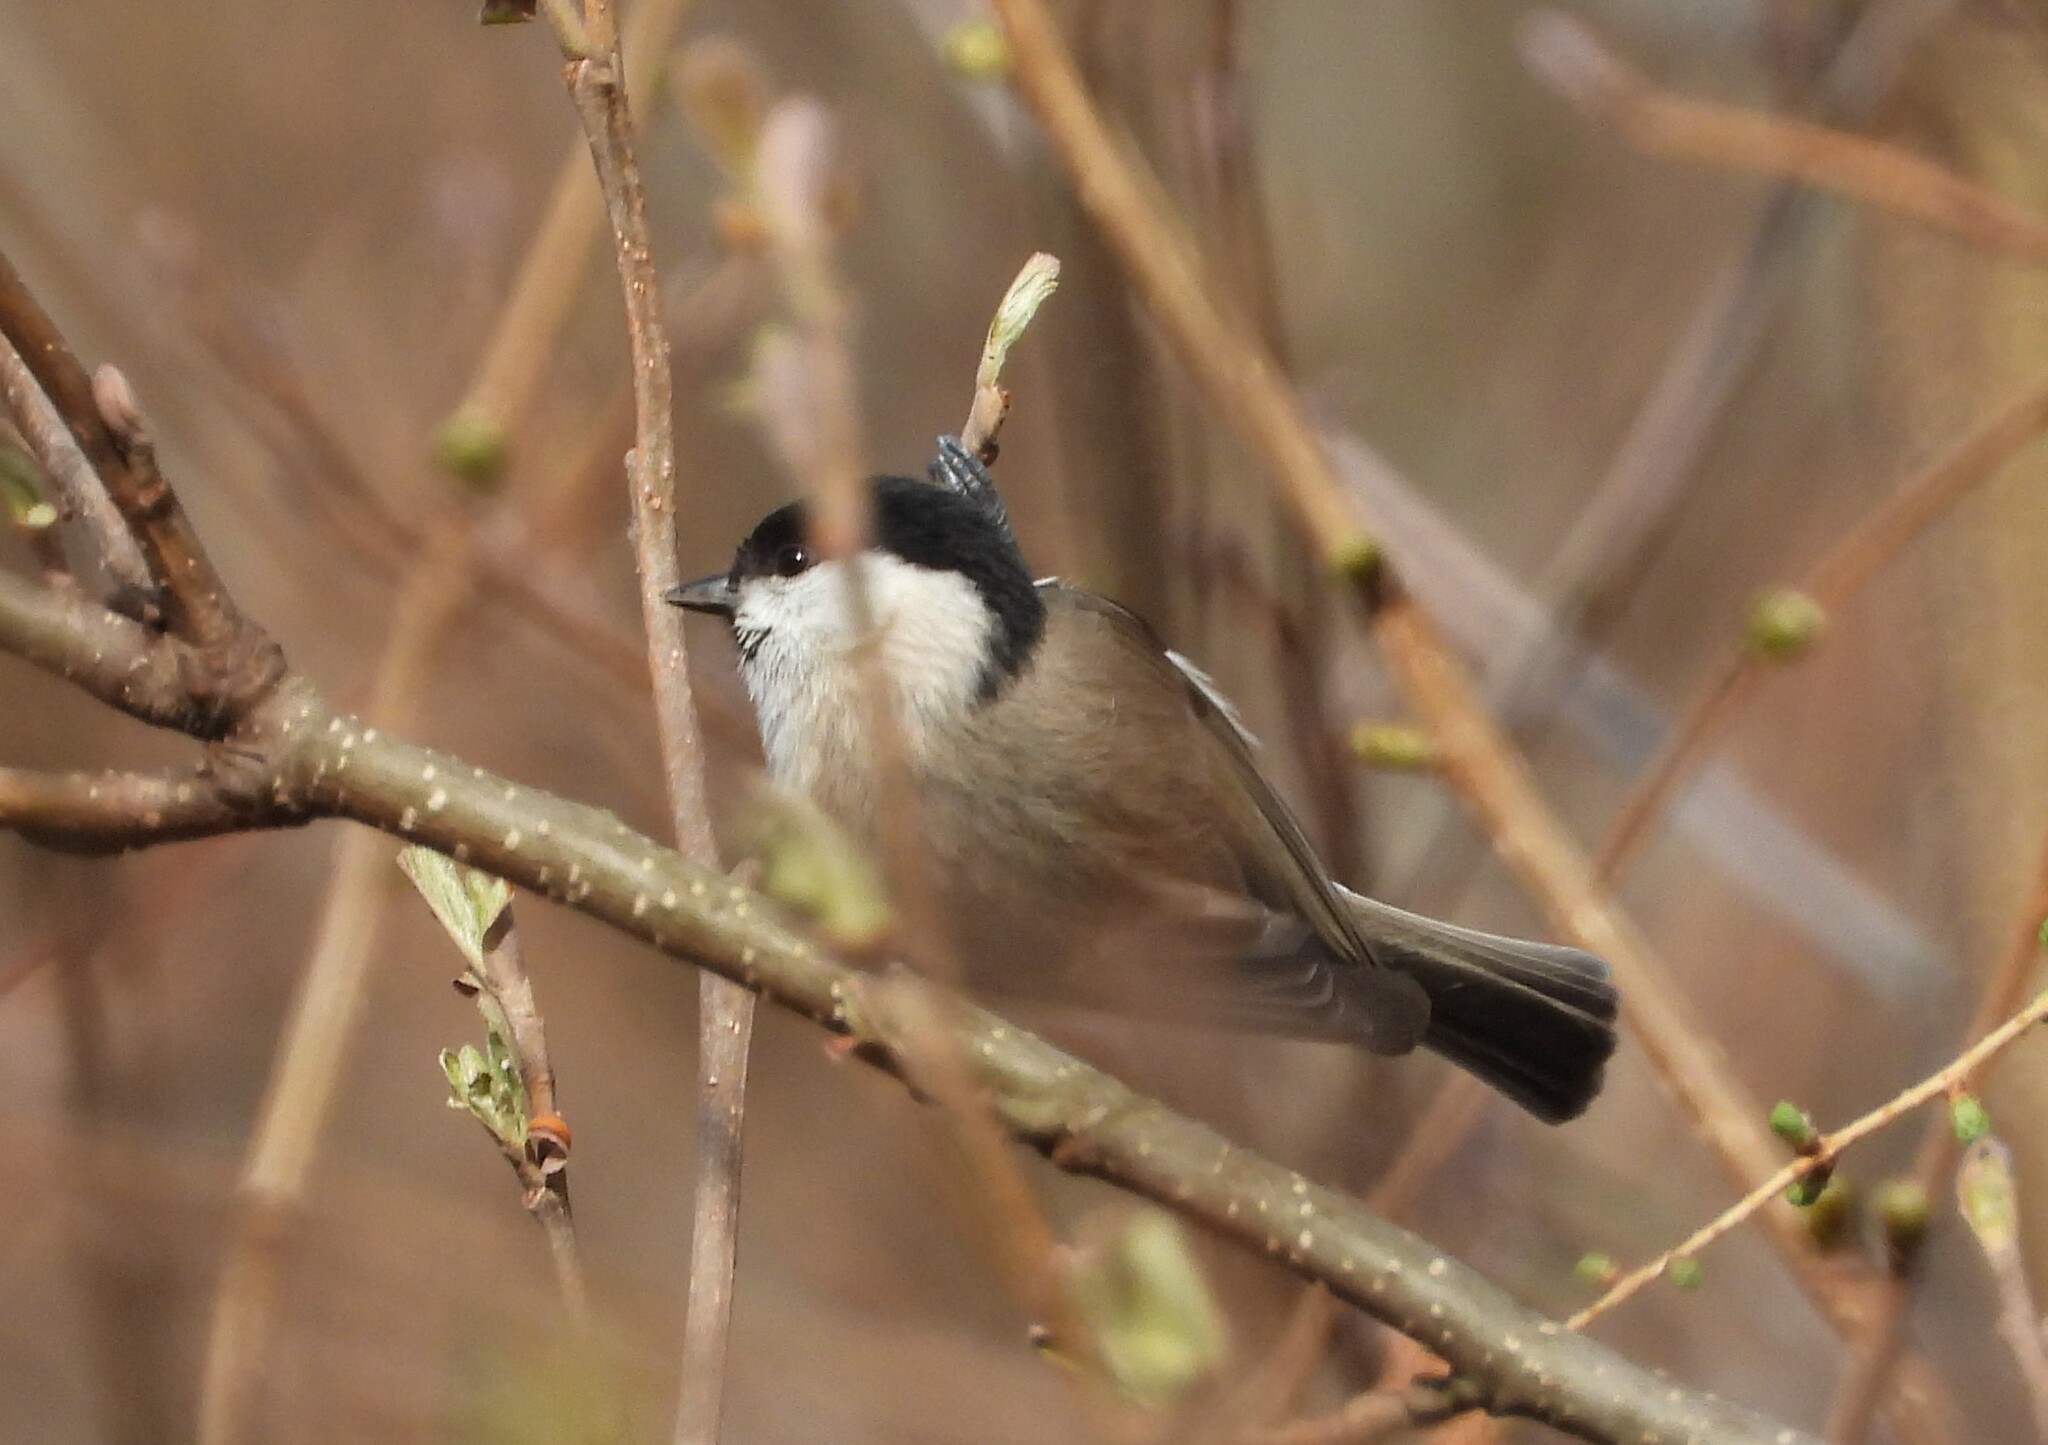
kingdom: Animalia
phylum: Chordata
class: Aves
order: Passeriformes
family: Paridae
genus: Poecile
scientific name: Poecile palustris
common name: Marsh tit
